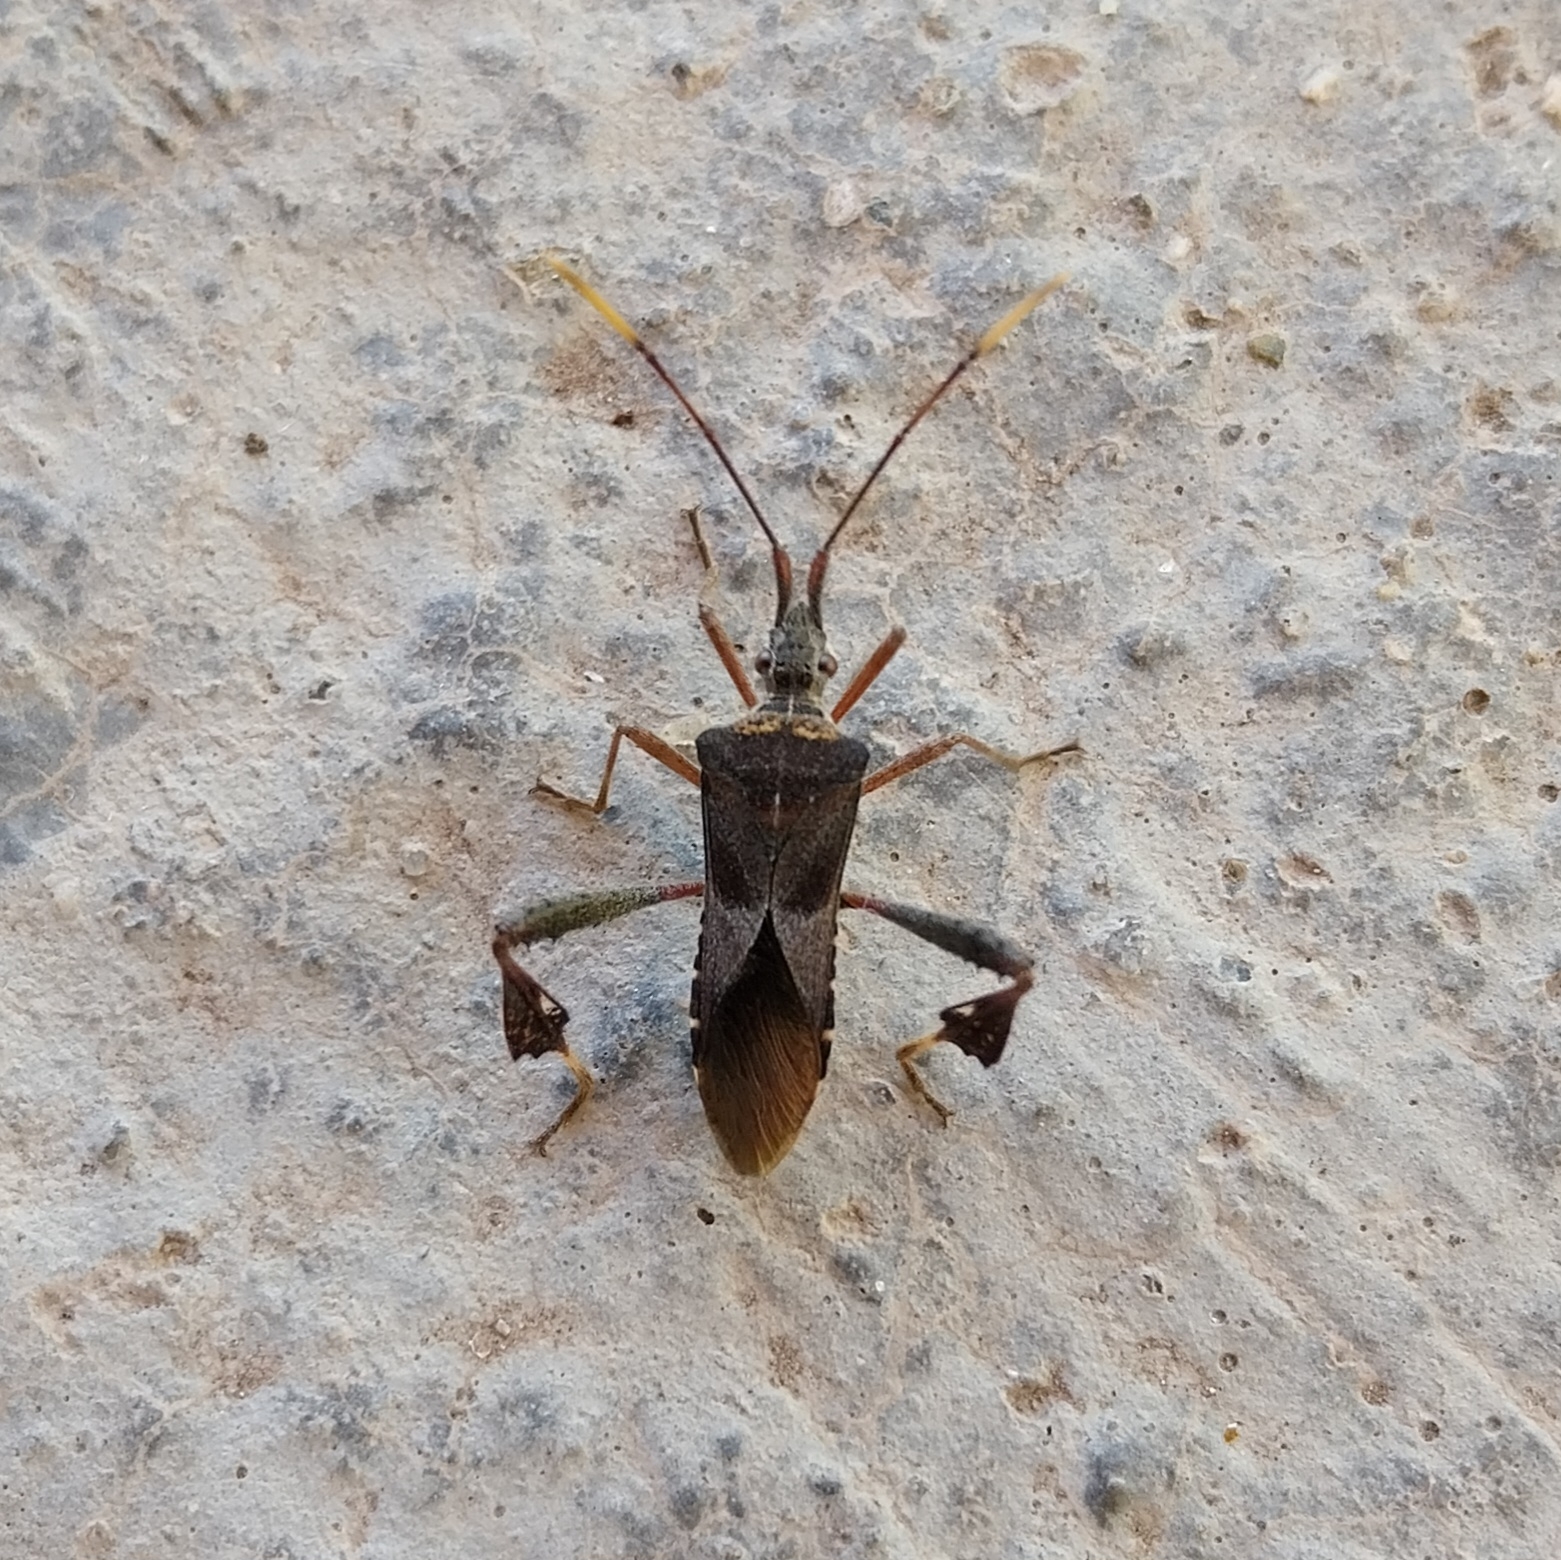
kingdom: Animalia
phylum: Arthropoda
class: Insecta
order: Hemiptera
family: Coreidae
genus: Leptoglossus
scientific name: Leptoglossus neovexillatus
